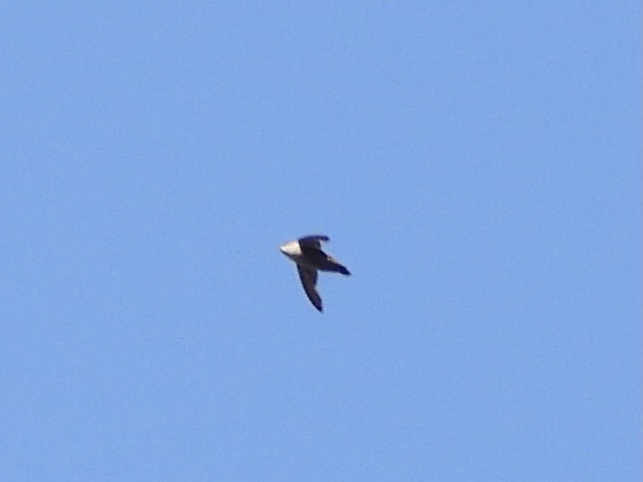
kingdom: Animalia
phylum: Chordata
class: Aves
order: Apodiformes
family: Apodidae
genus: Chaetura
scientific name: Chaetura vauxi
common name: Vaux's swift
